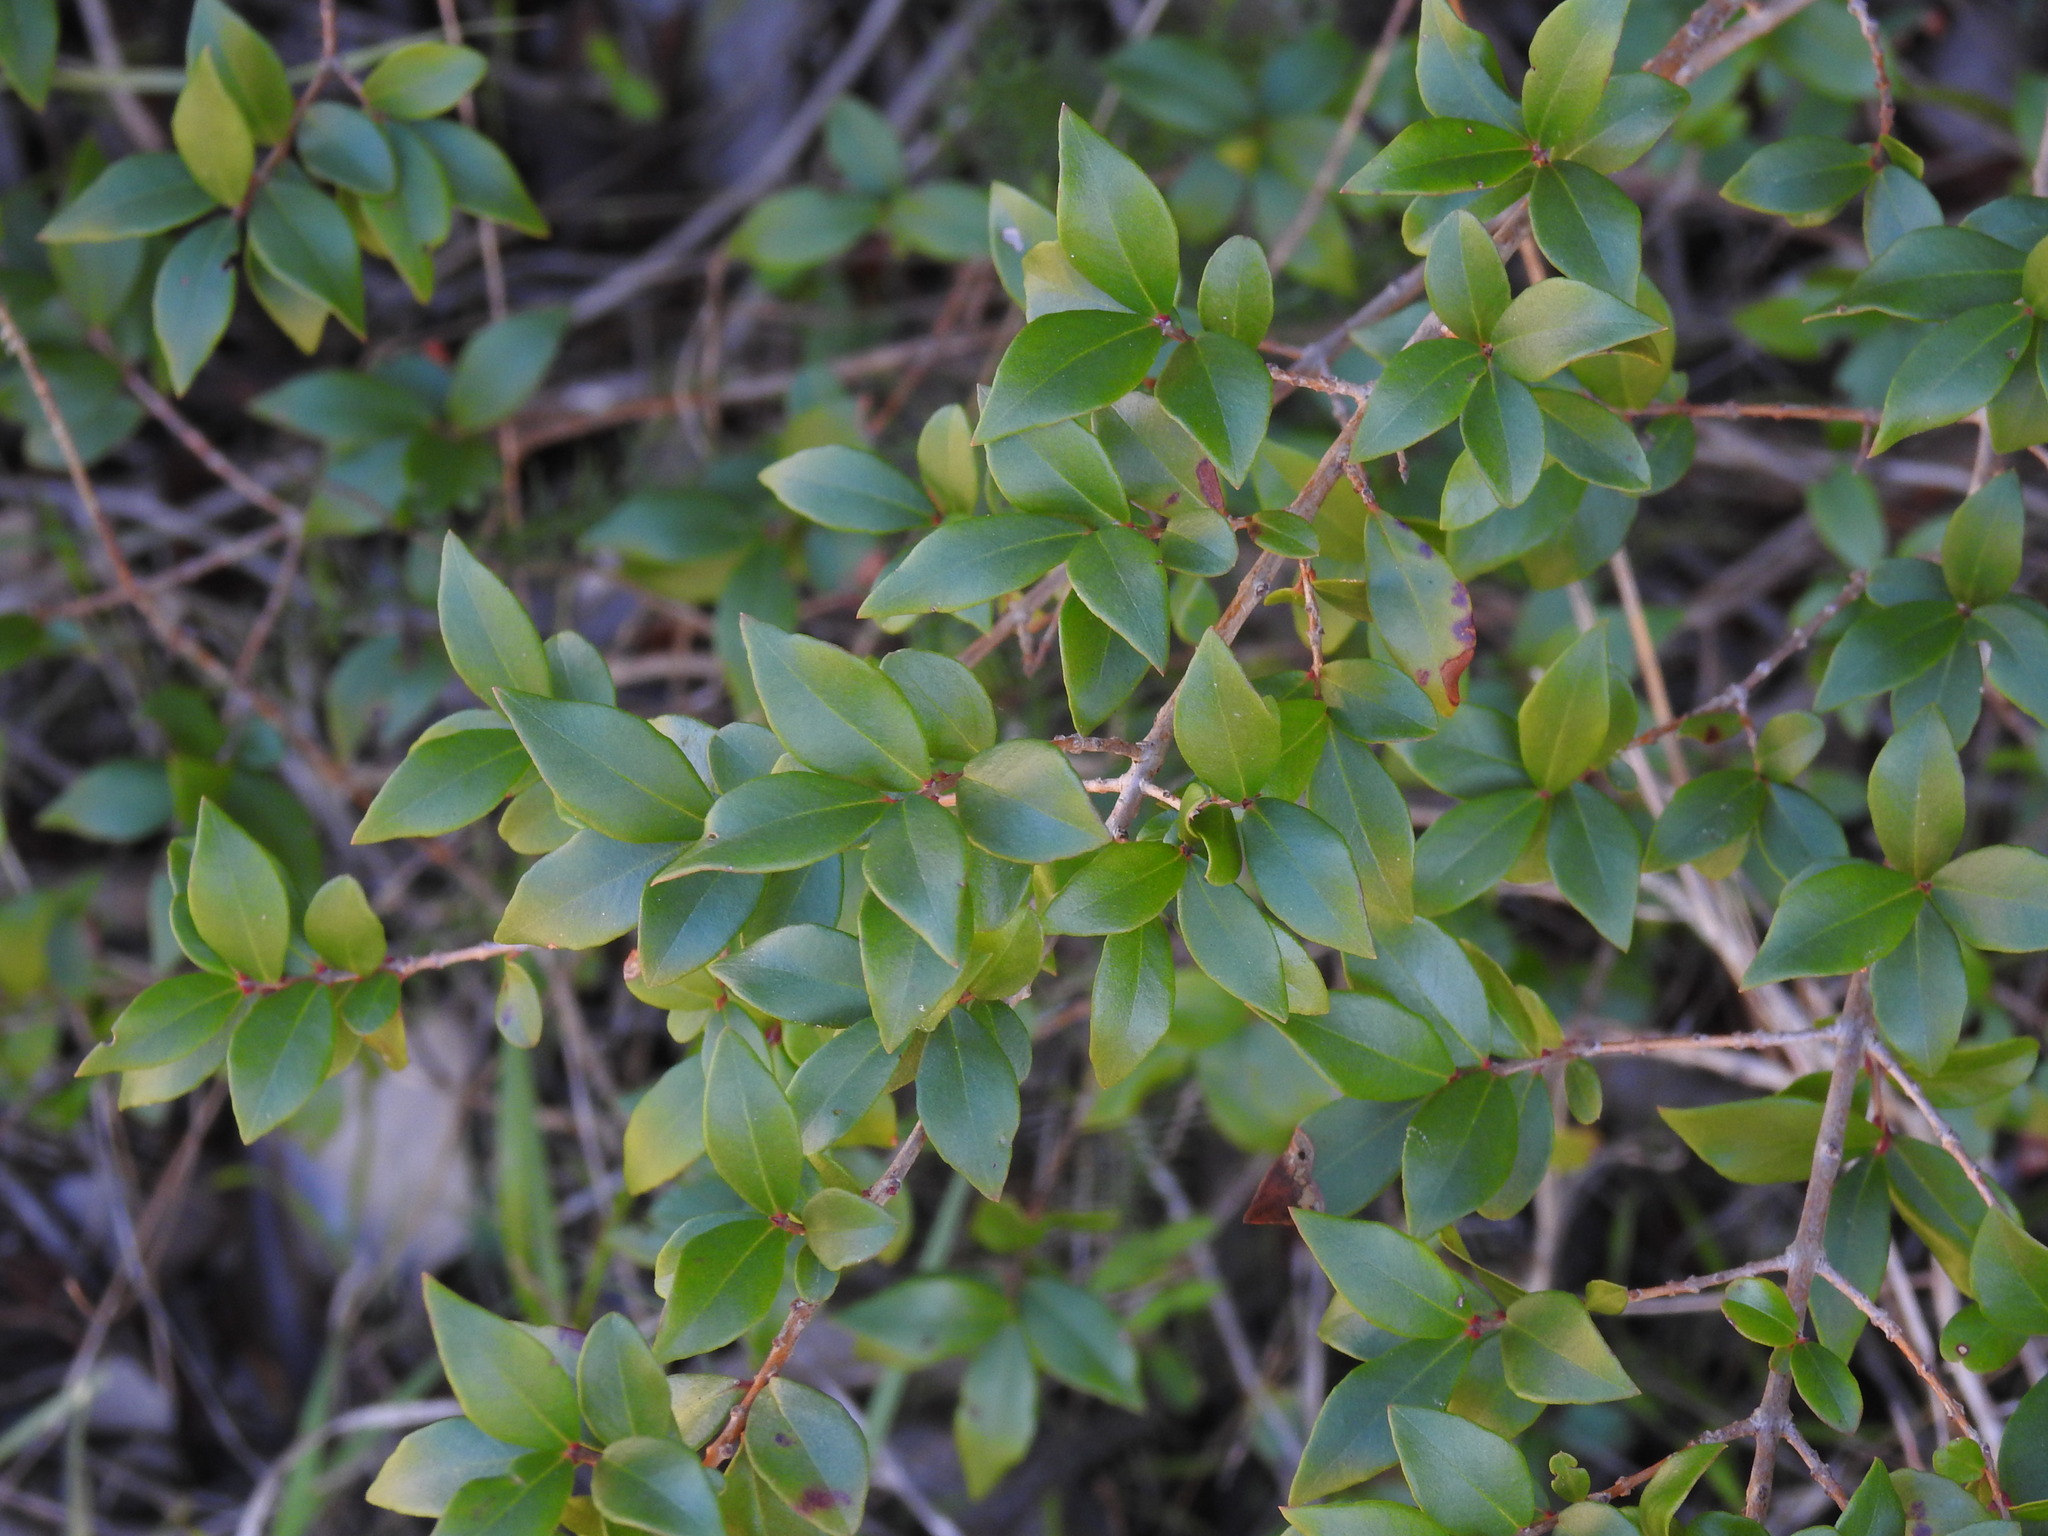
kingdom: Plantae
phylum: Tracheophyta
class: Magnoliopsida
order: Myrtales
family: Myrtaceae
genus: Myrtus
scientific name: Myrtus communis
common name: Myrtle
